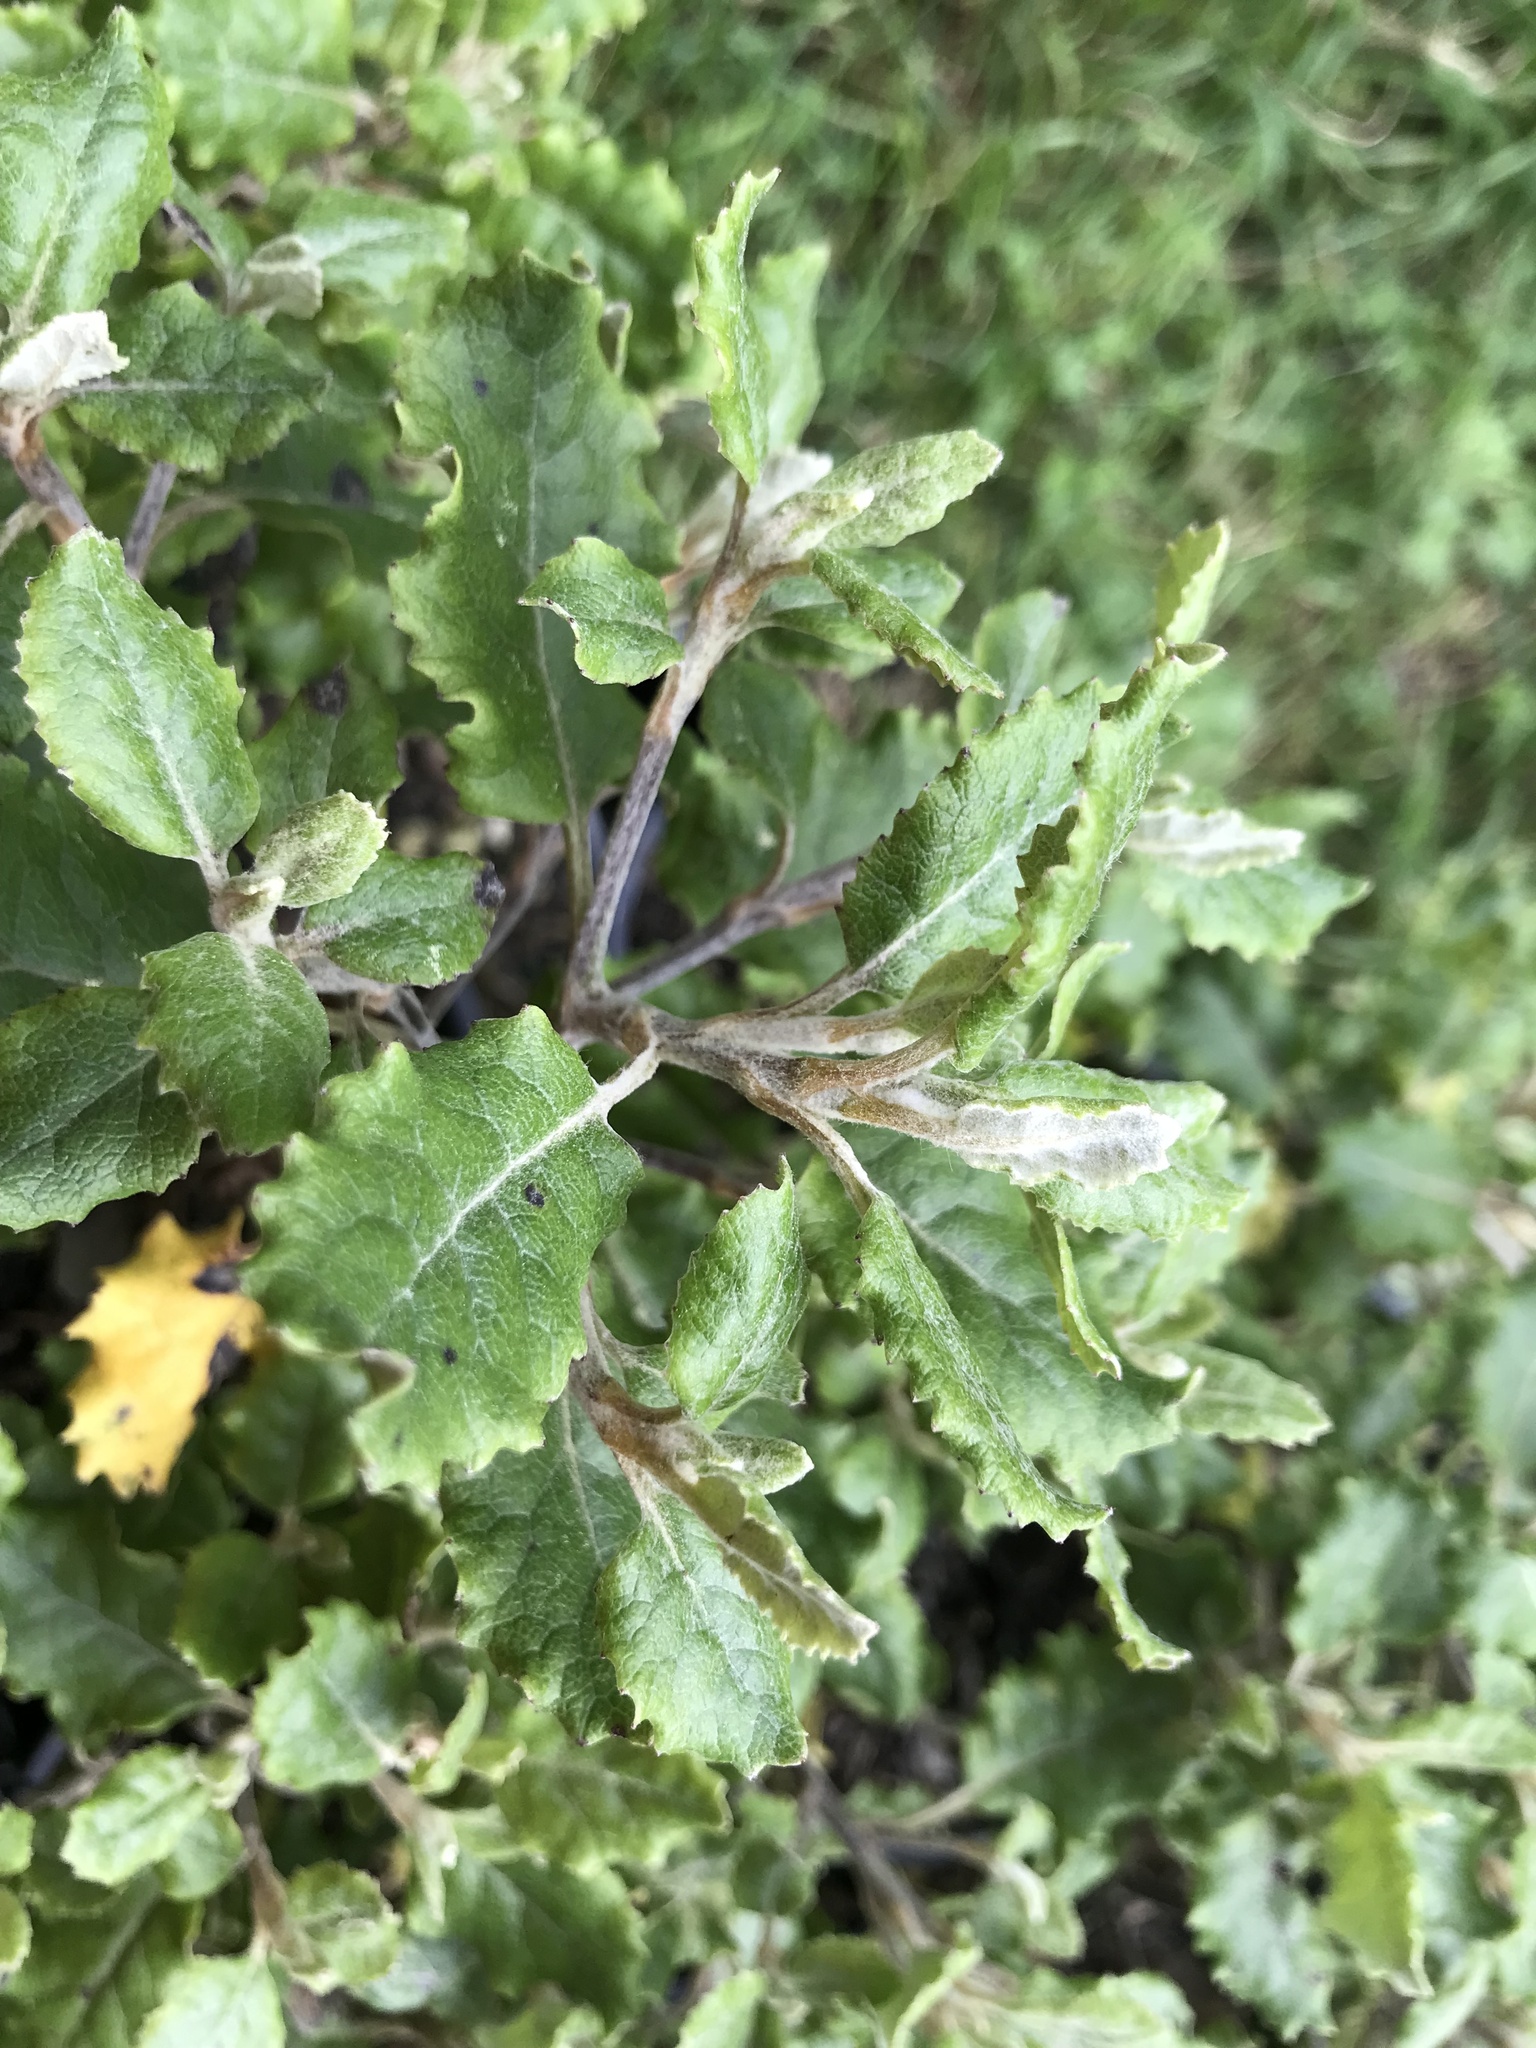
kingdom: Plantae
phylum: Tracheophyta
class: Magnoliopsida
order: Asterales
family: Asteraceae
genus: Brachyglottis
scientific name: Brachyglottis pentacopa
